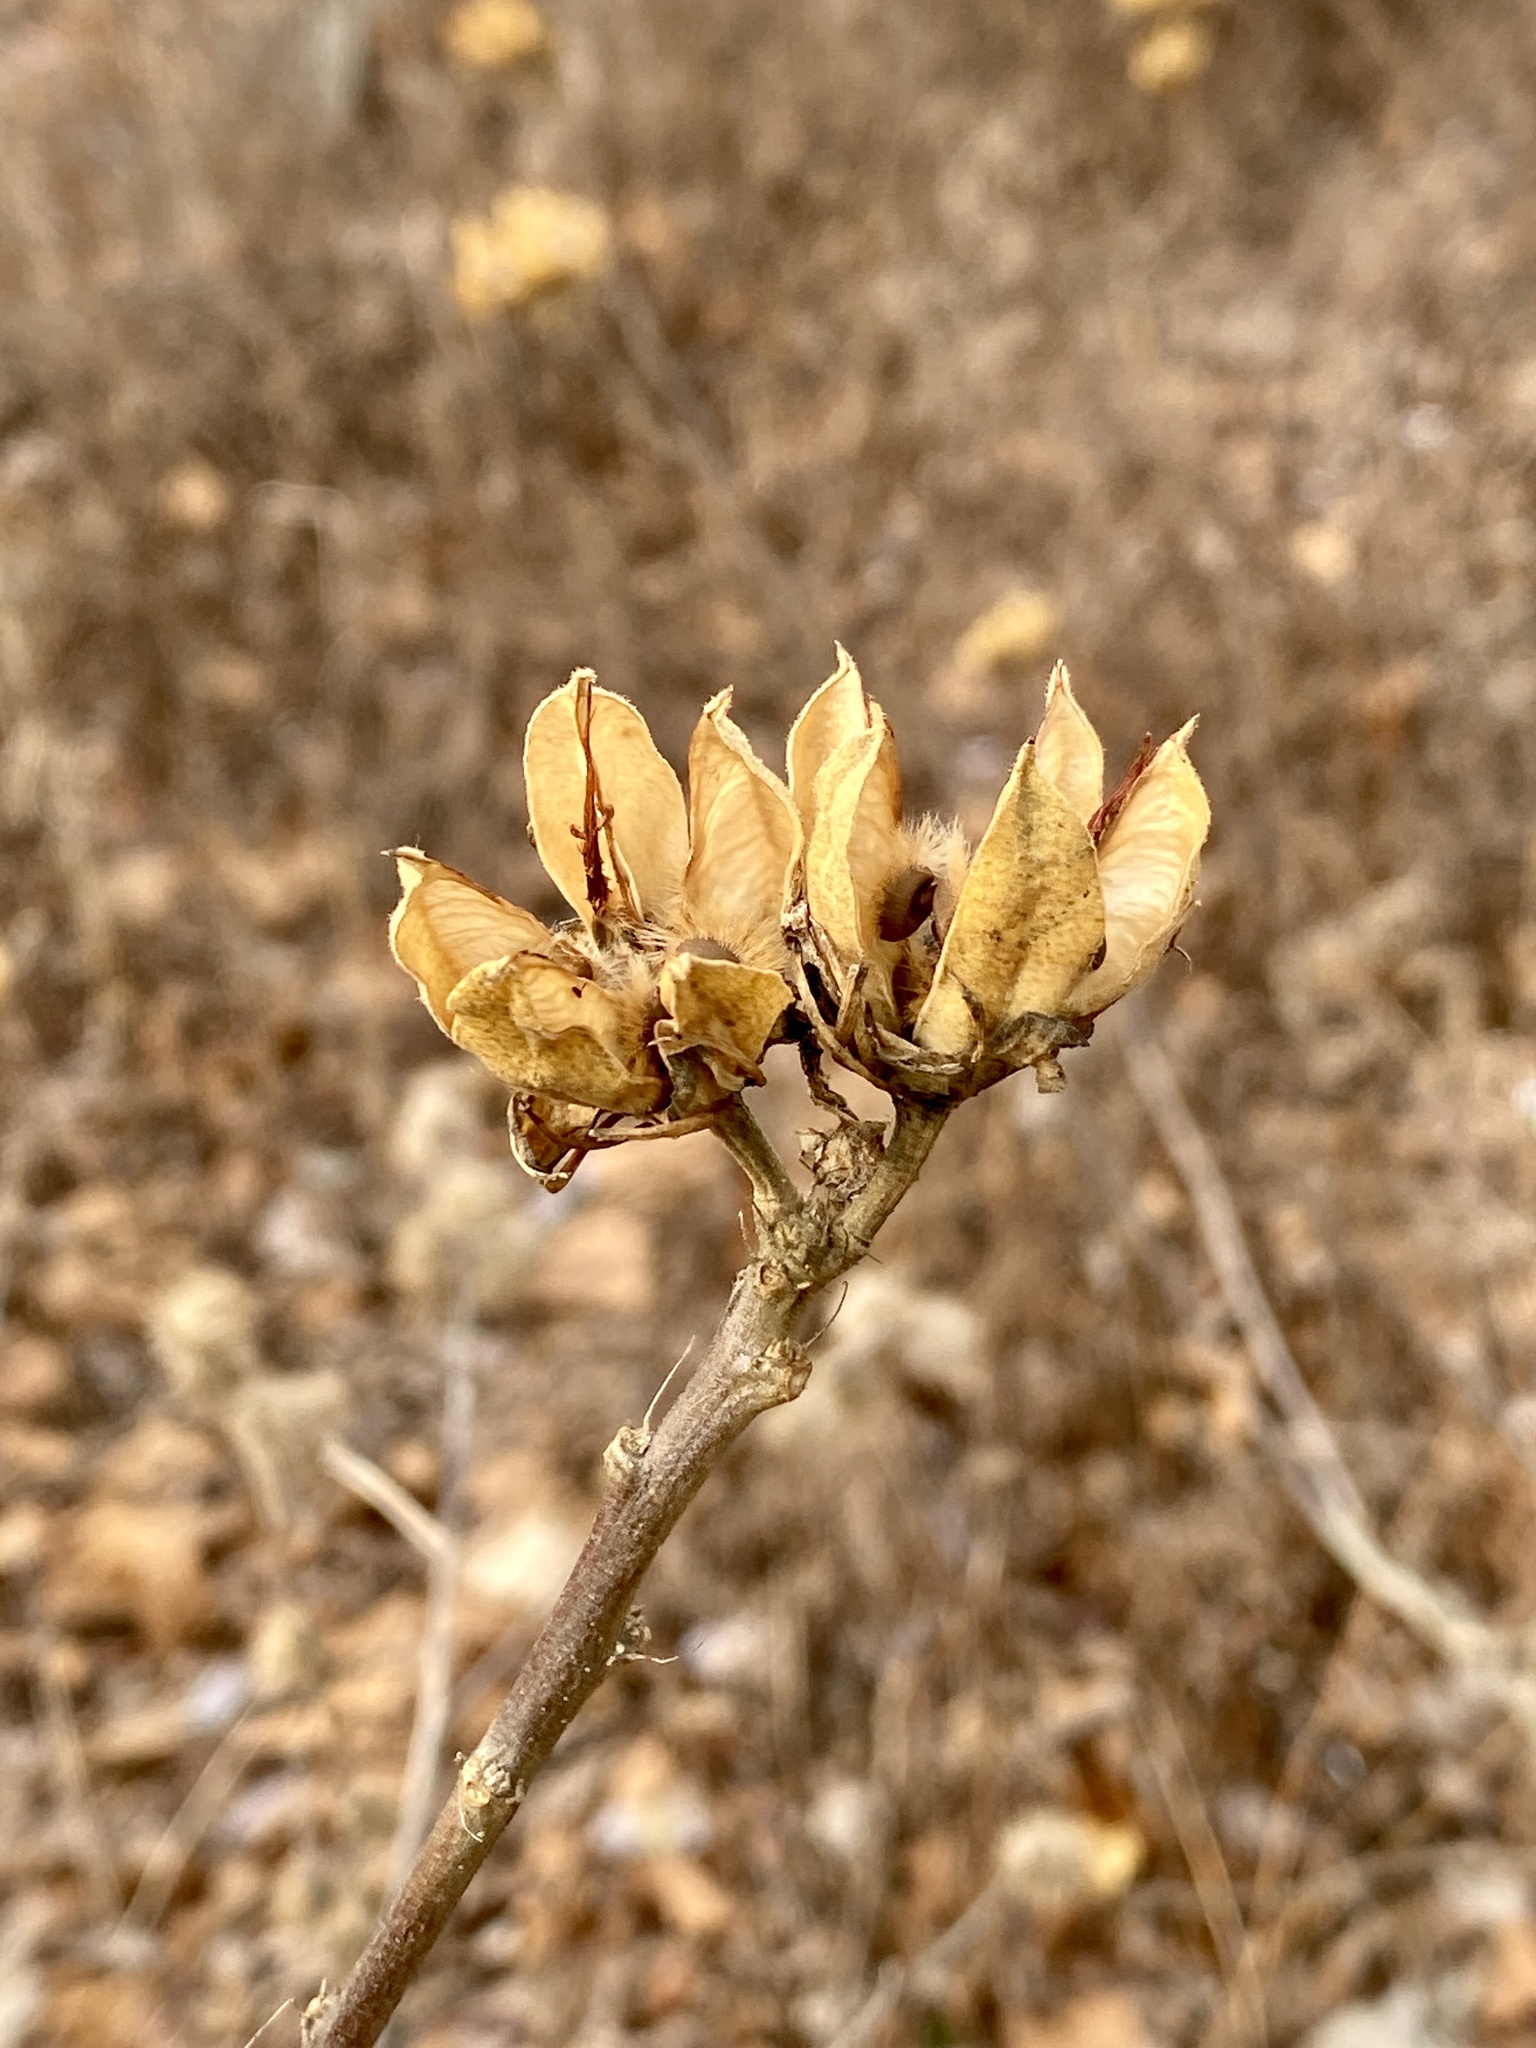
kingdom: Plantae
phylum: Tracheophyta
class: Magnoliopsida
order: Malvales
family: Malvaceae
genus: Hibiscus
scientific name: Hibiscus syriacus
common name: Syrian ketmia
